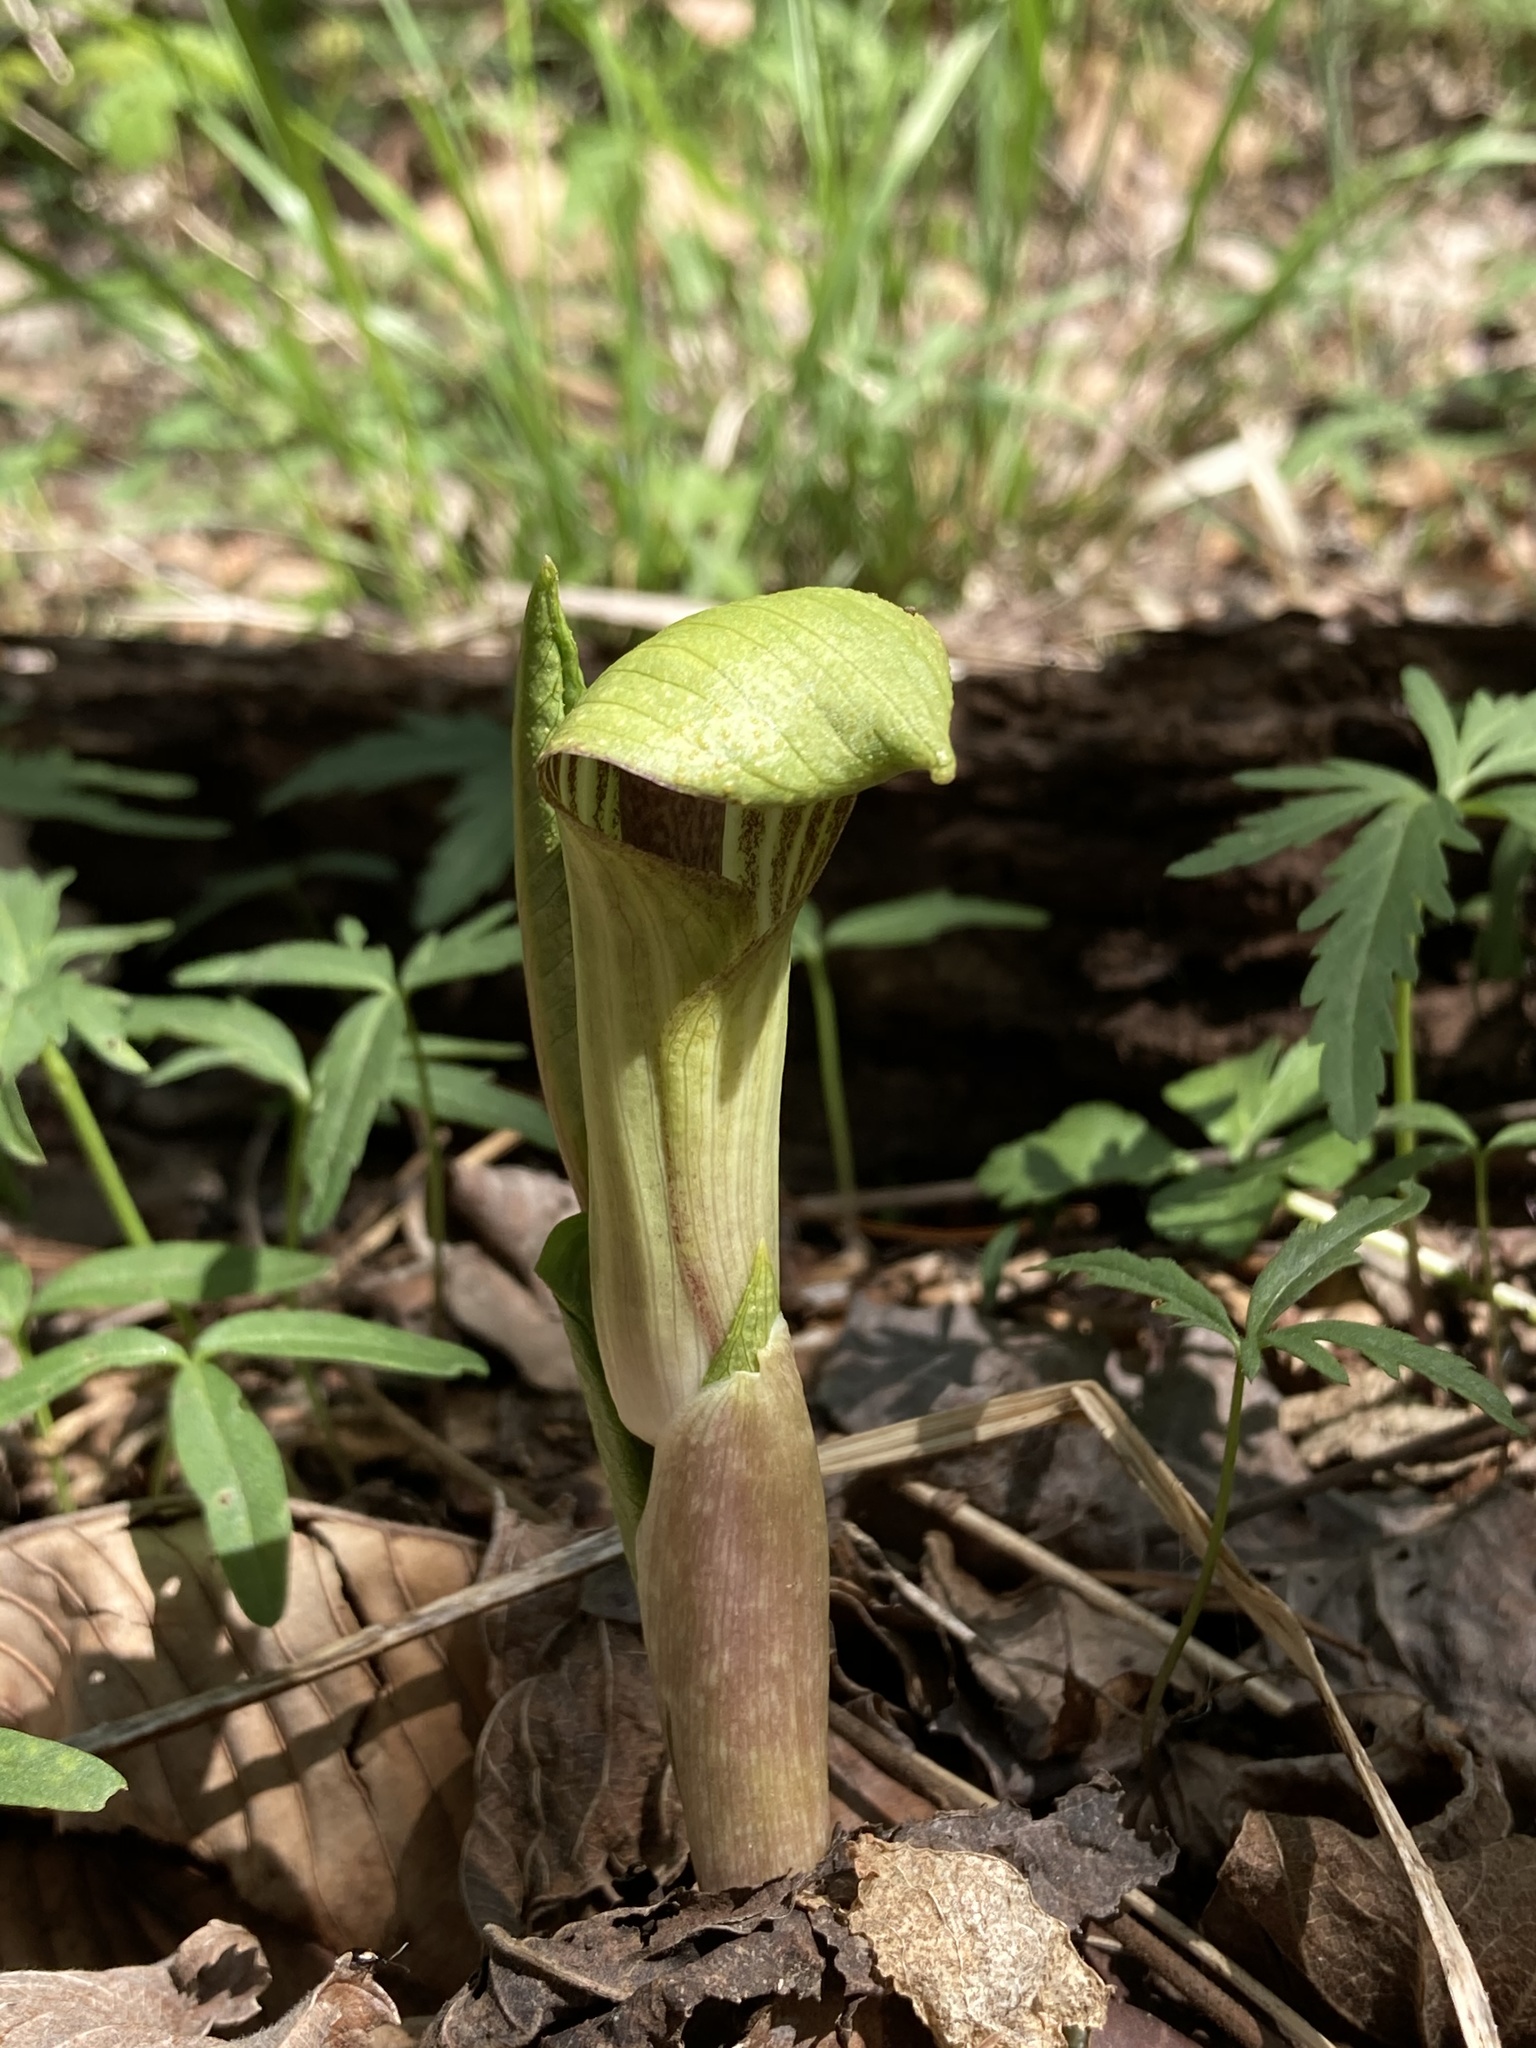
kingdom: Plantae
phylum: Tracheophyta
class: Liliopsida
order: Alismatales
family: Araceae
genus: Arisaema
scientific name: Arisaema triphyllum
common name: Jack-in-the-pulpit
